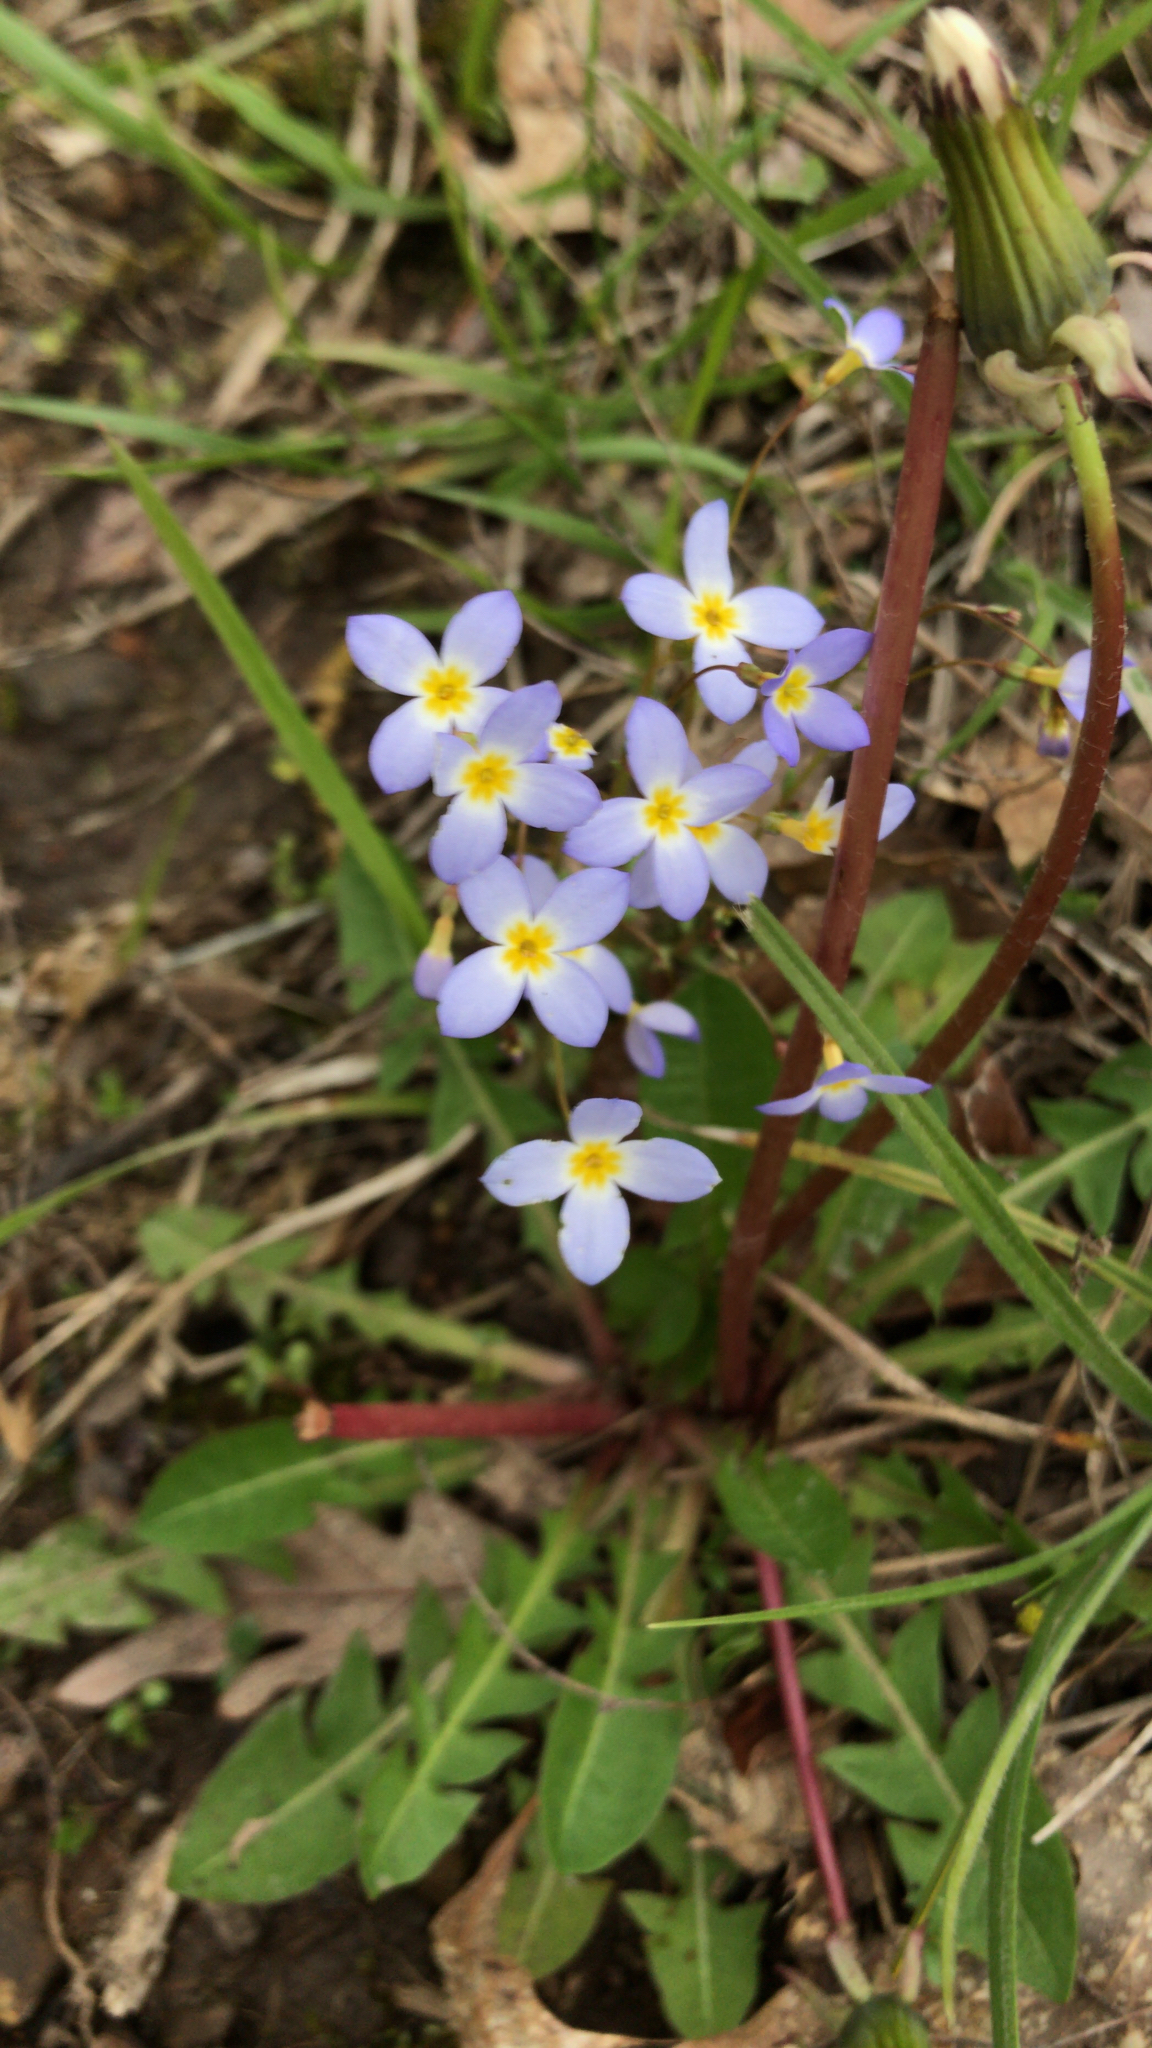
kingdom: Plantae
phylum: Tracheophyta
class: Magnoliopsida
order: Gentianales
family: Rubiaceae
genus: Houstonia
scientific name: Houstonia caerulea
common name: Bluets
